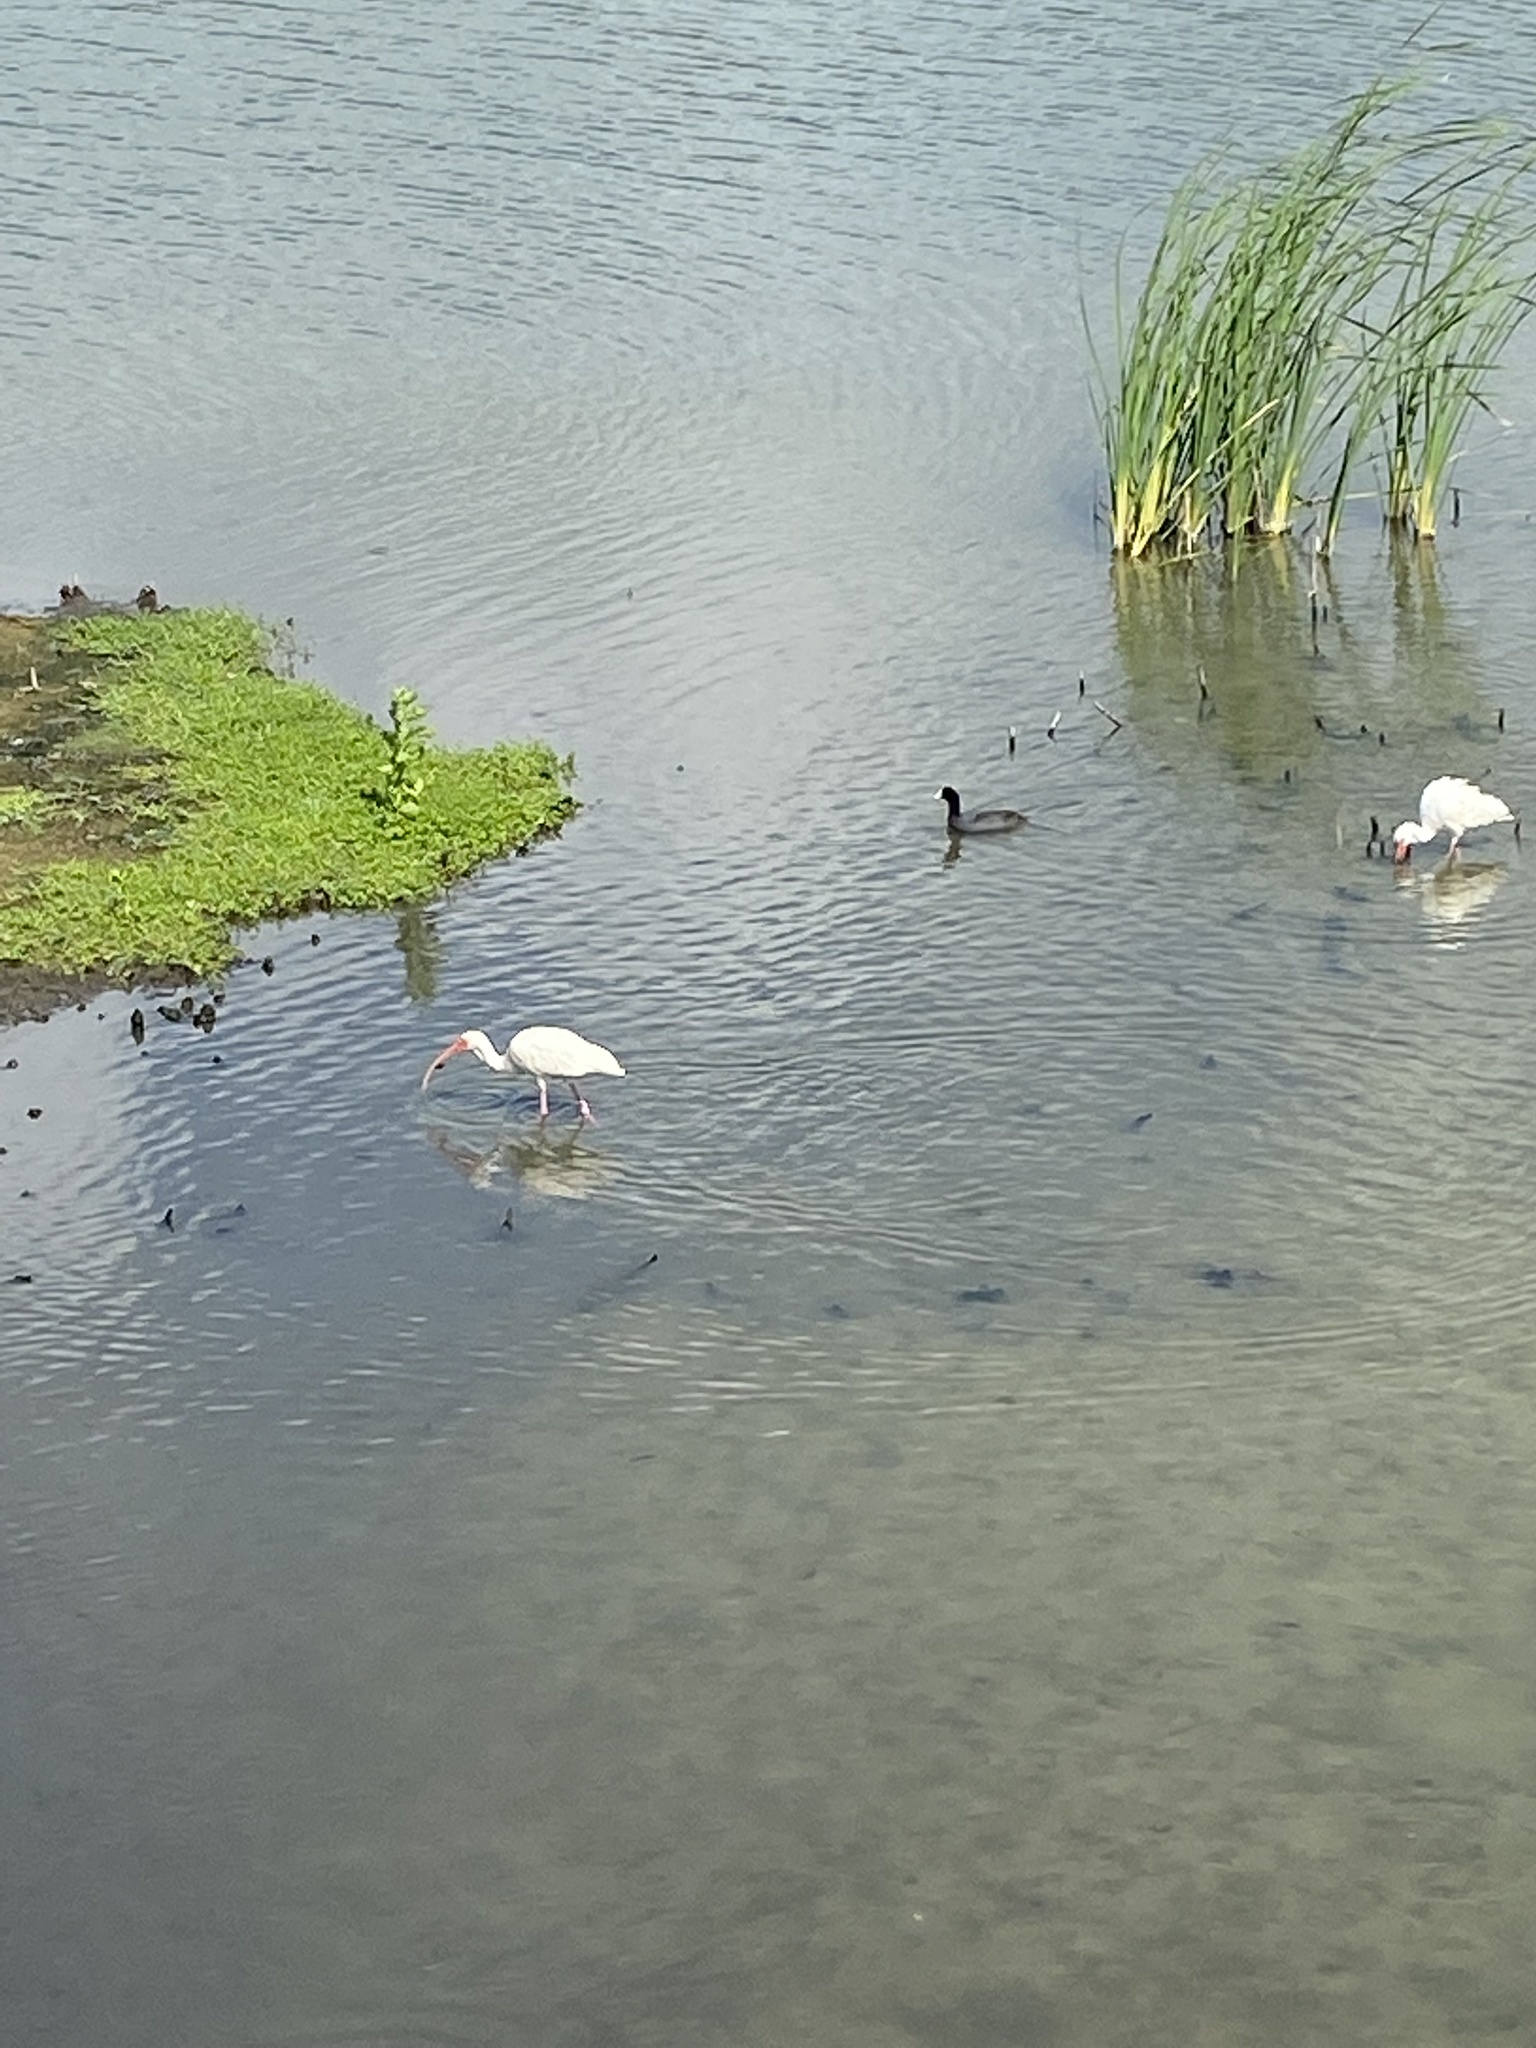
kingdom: Animalia
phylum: Chordata
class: Aves
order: Pelecaniformes
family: Threskiornithidae
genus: Eudocimus
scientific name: Eudocimus albus
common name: White ibis
